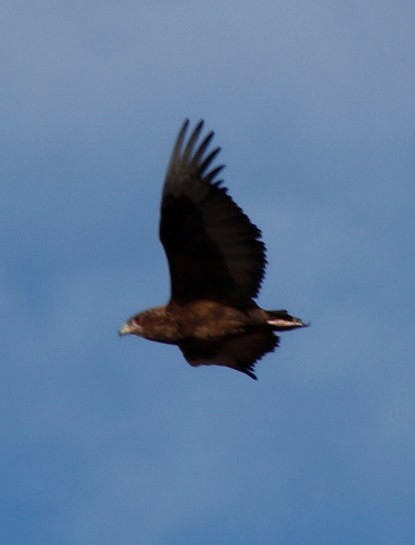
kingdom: Animalia
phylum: Chordata
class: Aves
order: Accipitriformes
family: Accipitridae
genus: Terathopius
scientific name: Terathopius ecaudatus
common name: Bateleur
